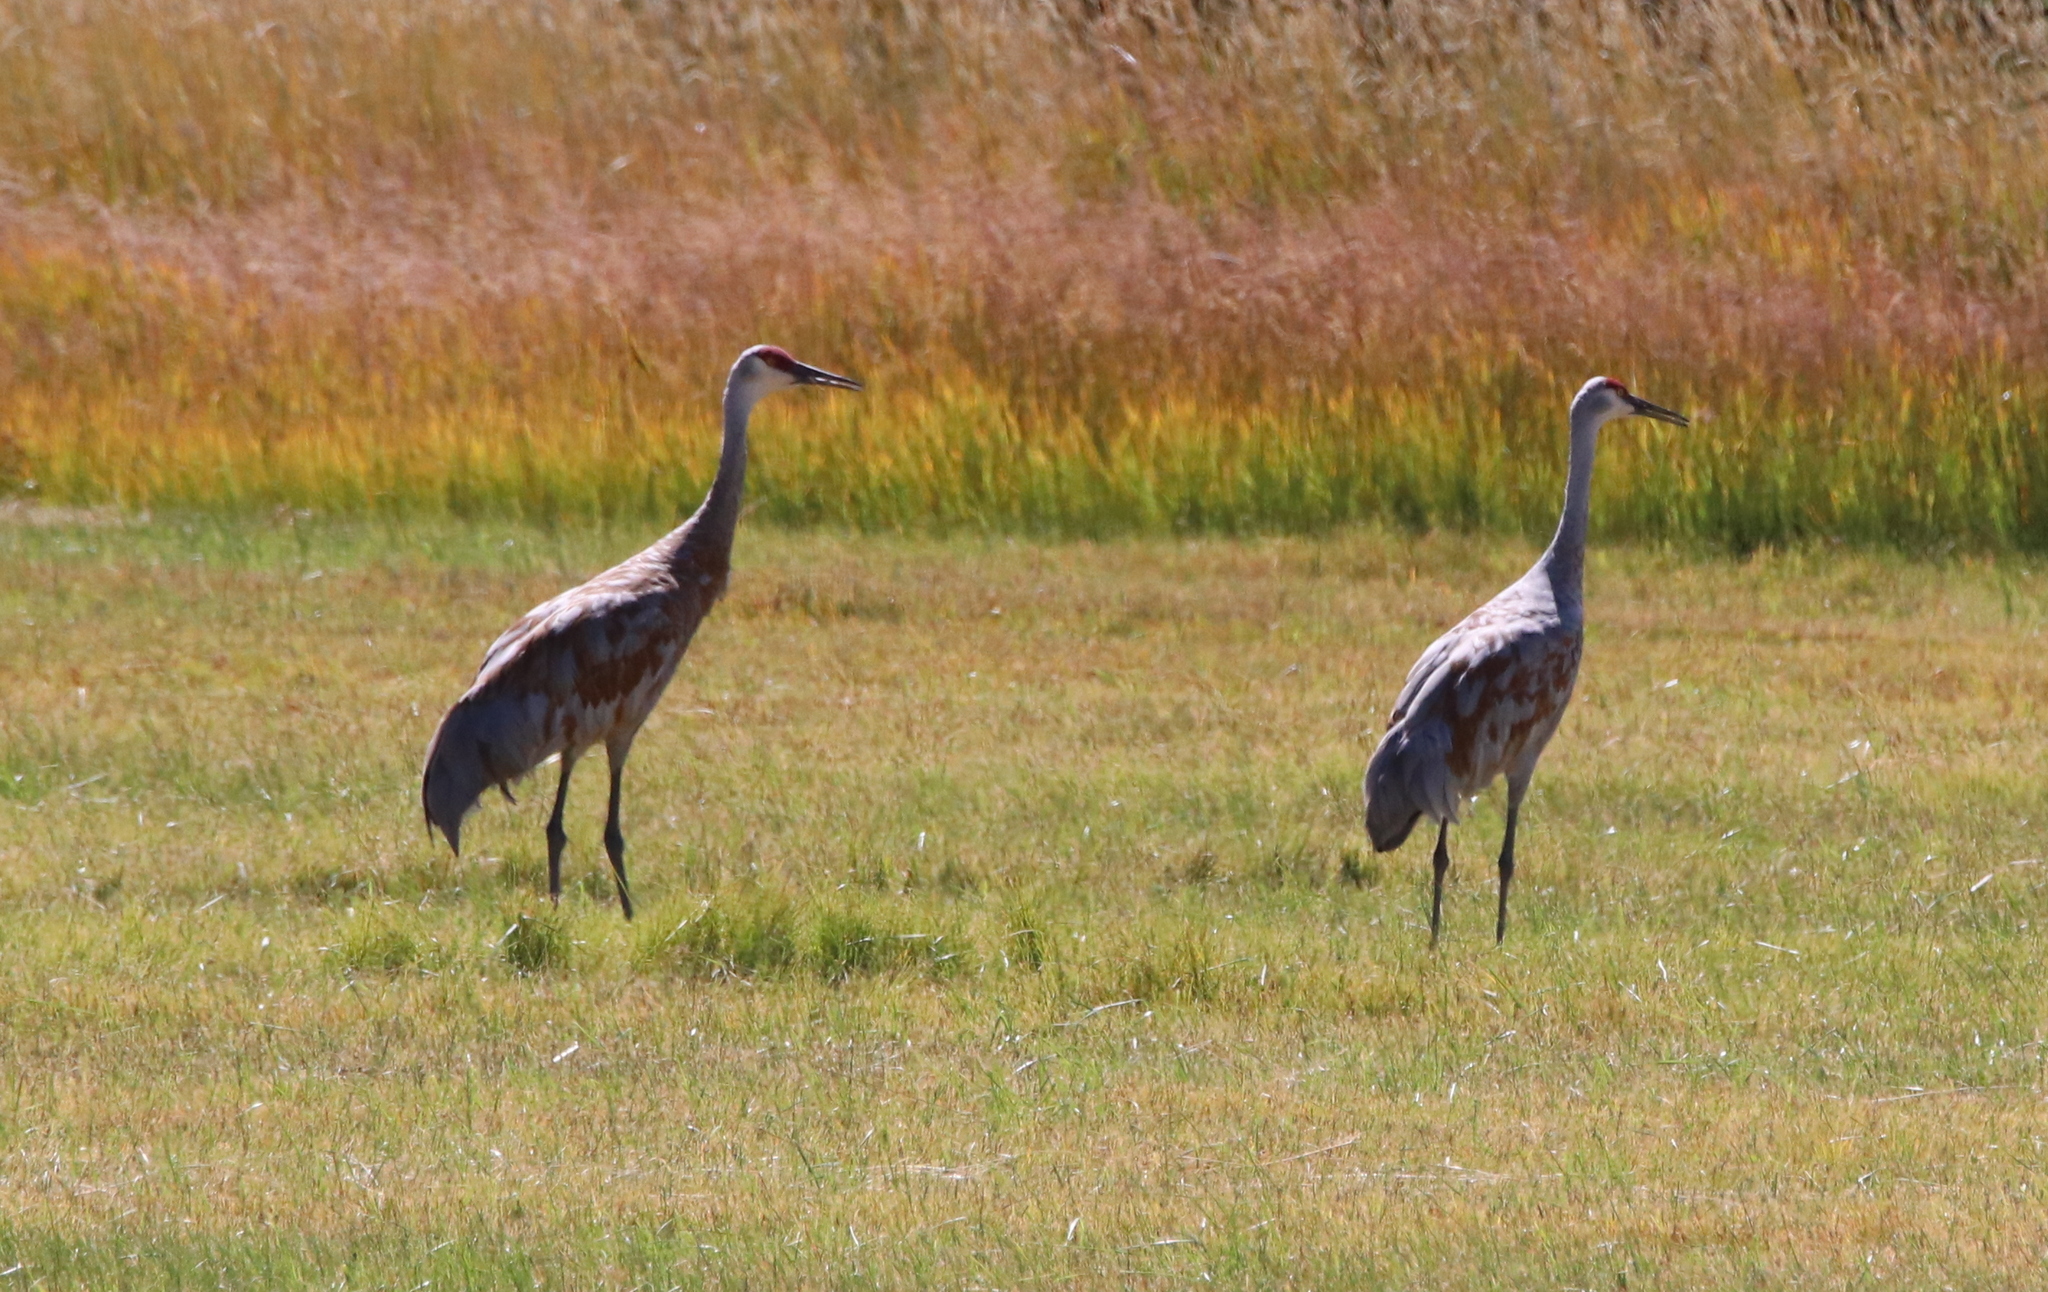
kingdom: Animalia
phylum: Chordata
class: Aves
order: Gruiformes
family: Gruidae
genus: Grus
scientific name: Grus canadensis
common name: Sandhill crane
